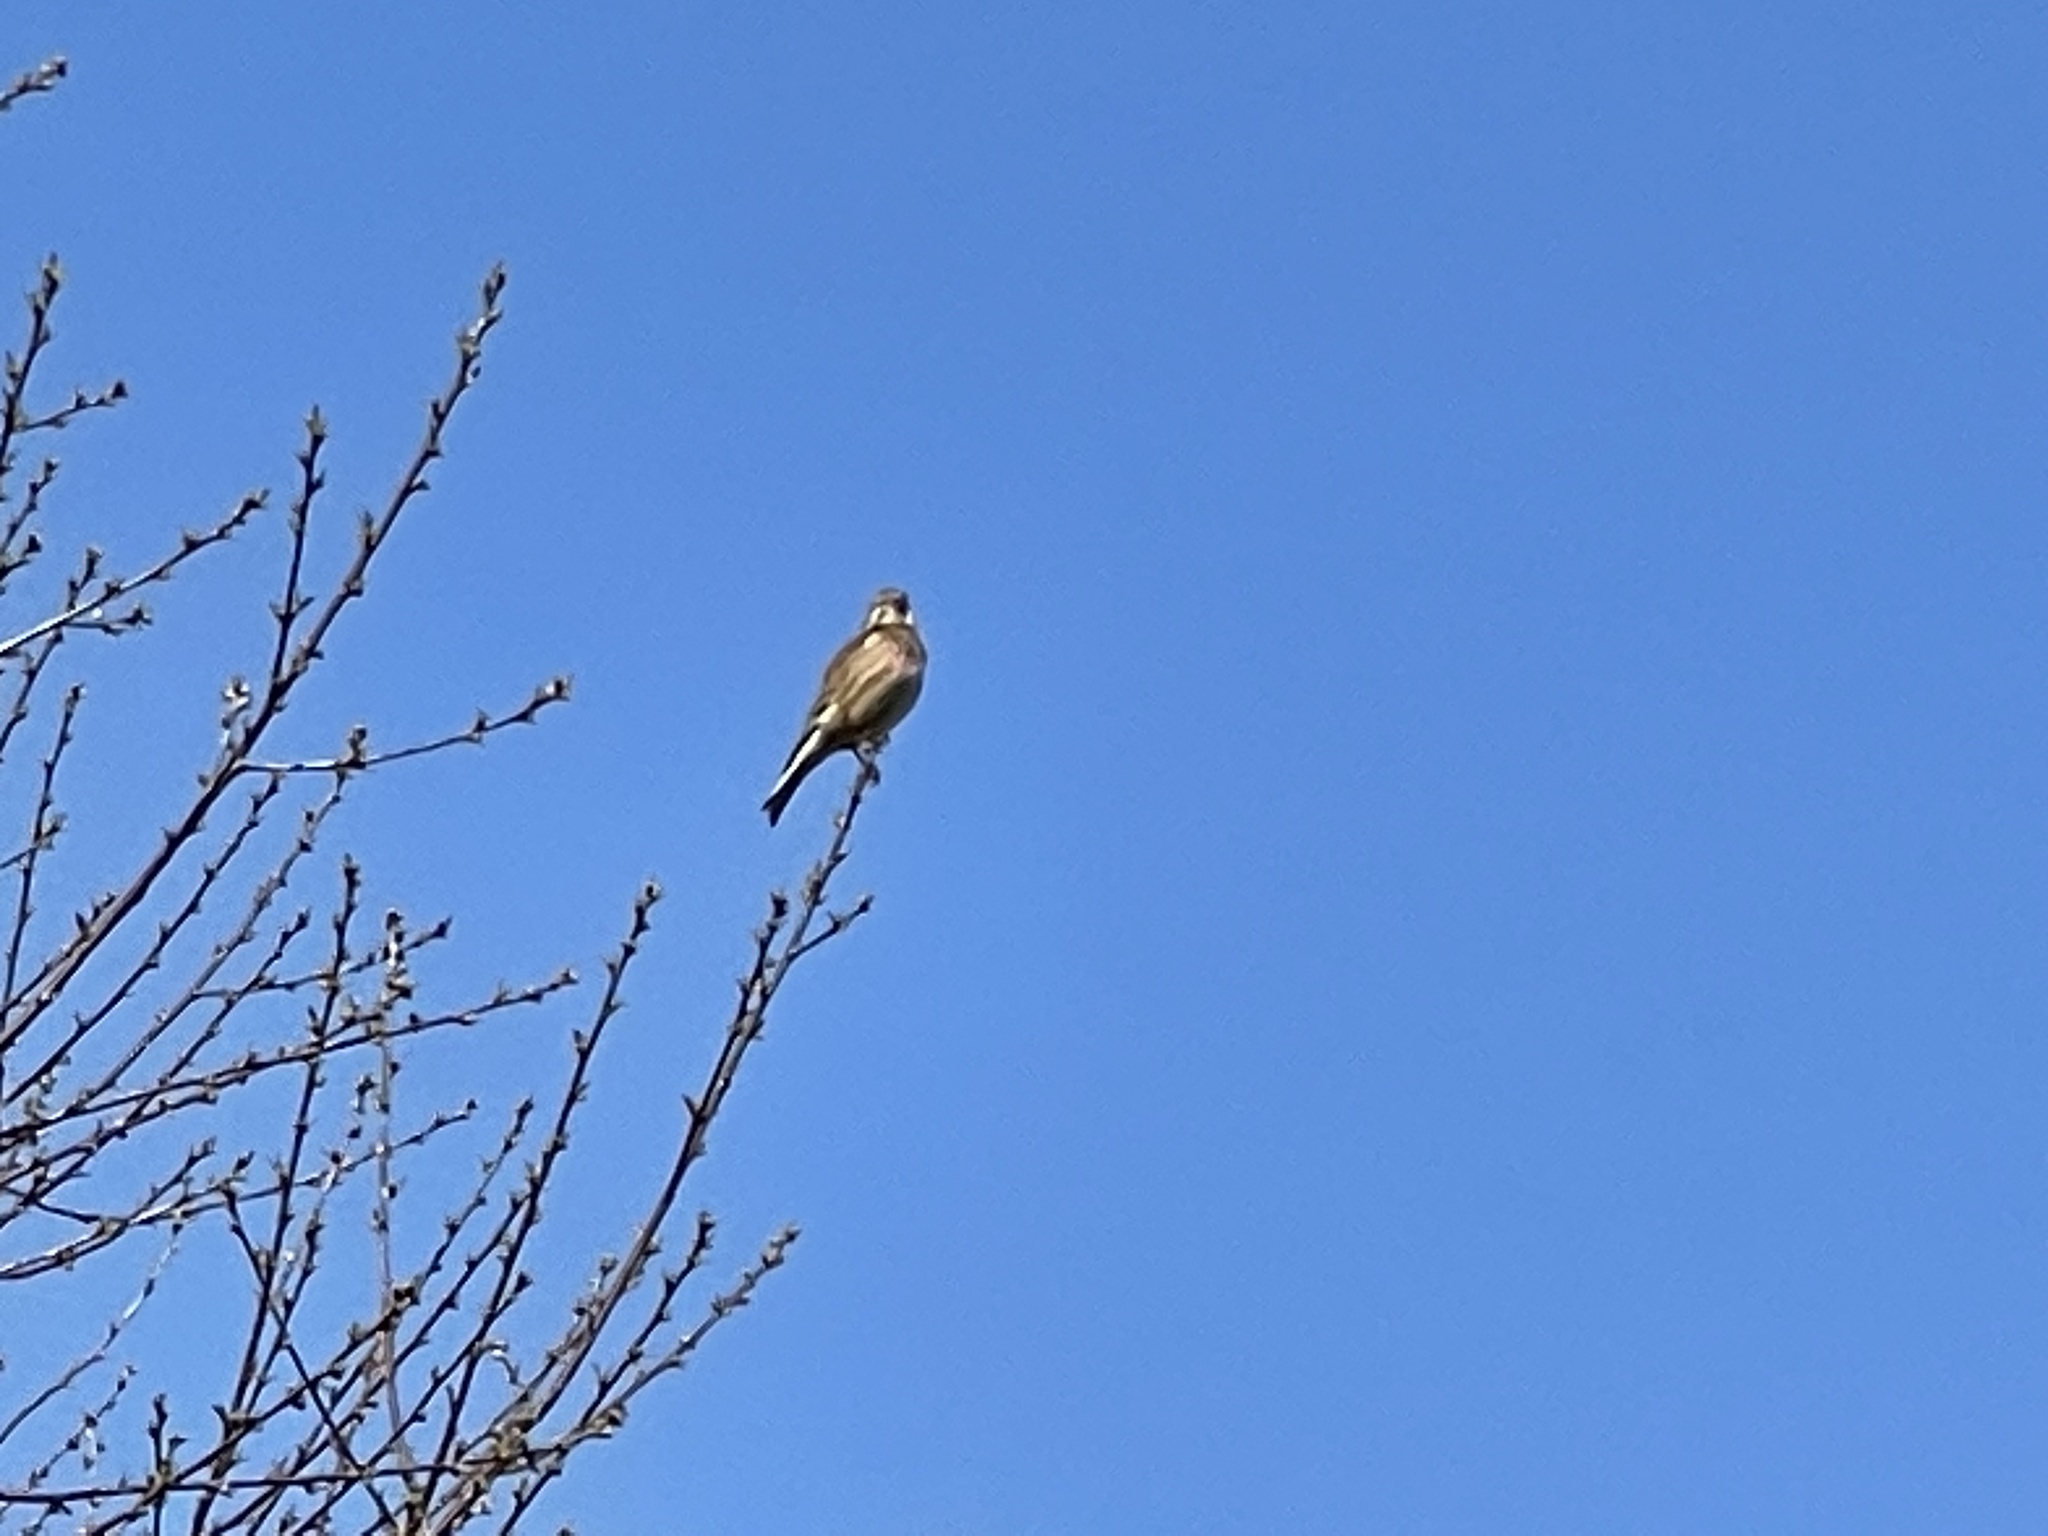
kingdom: Animalia
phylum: Chordata
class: Aves
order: Passeriformes
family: Fringillidae
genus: Linaria
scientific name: Linaria cannabina
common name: Common linnet
